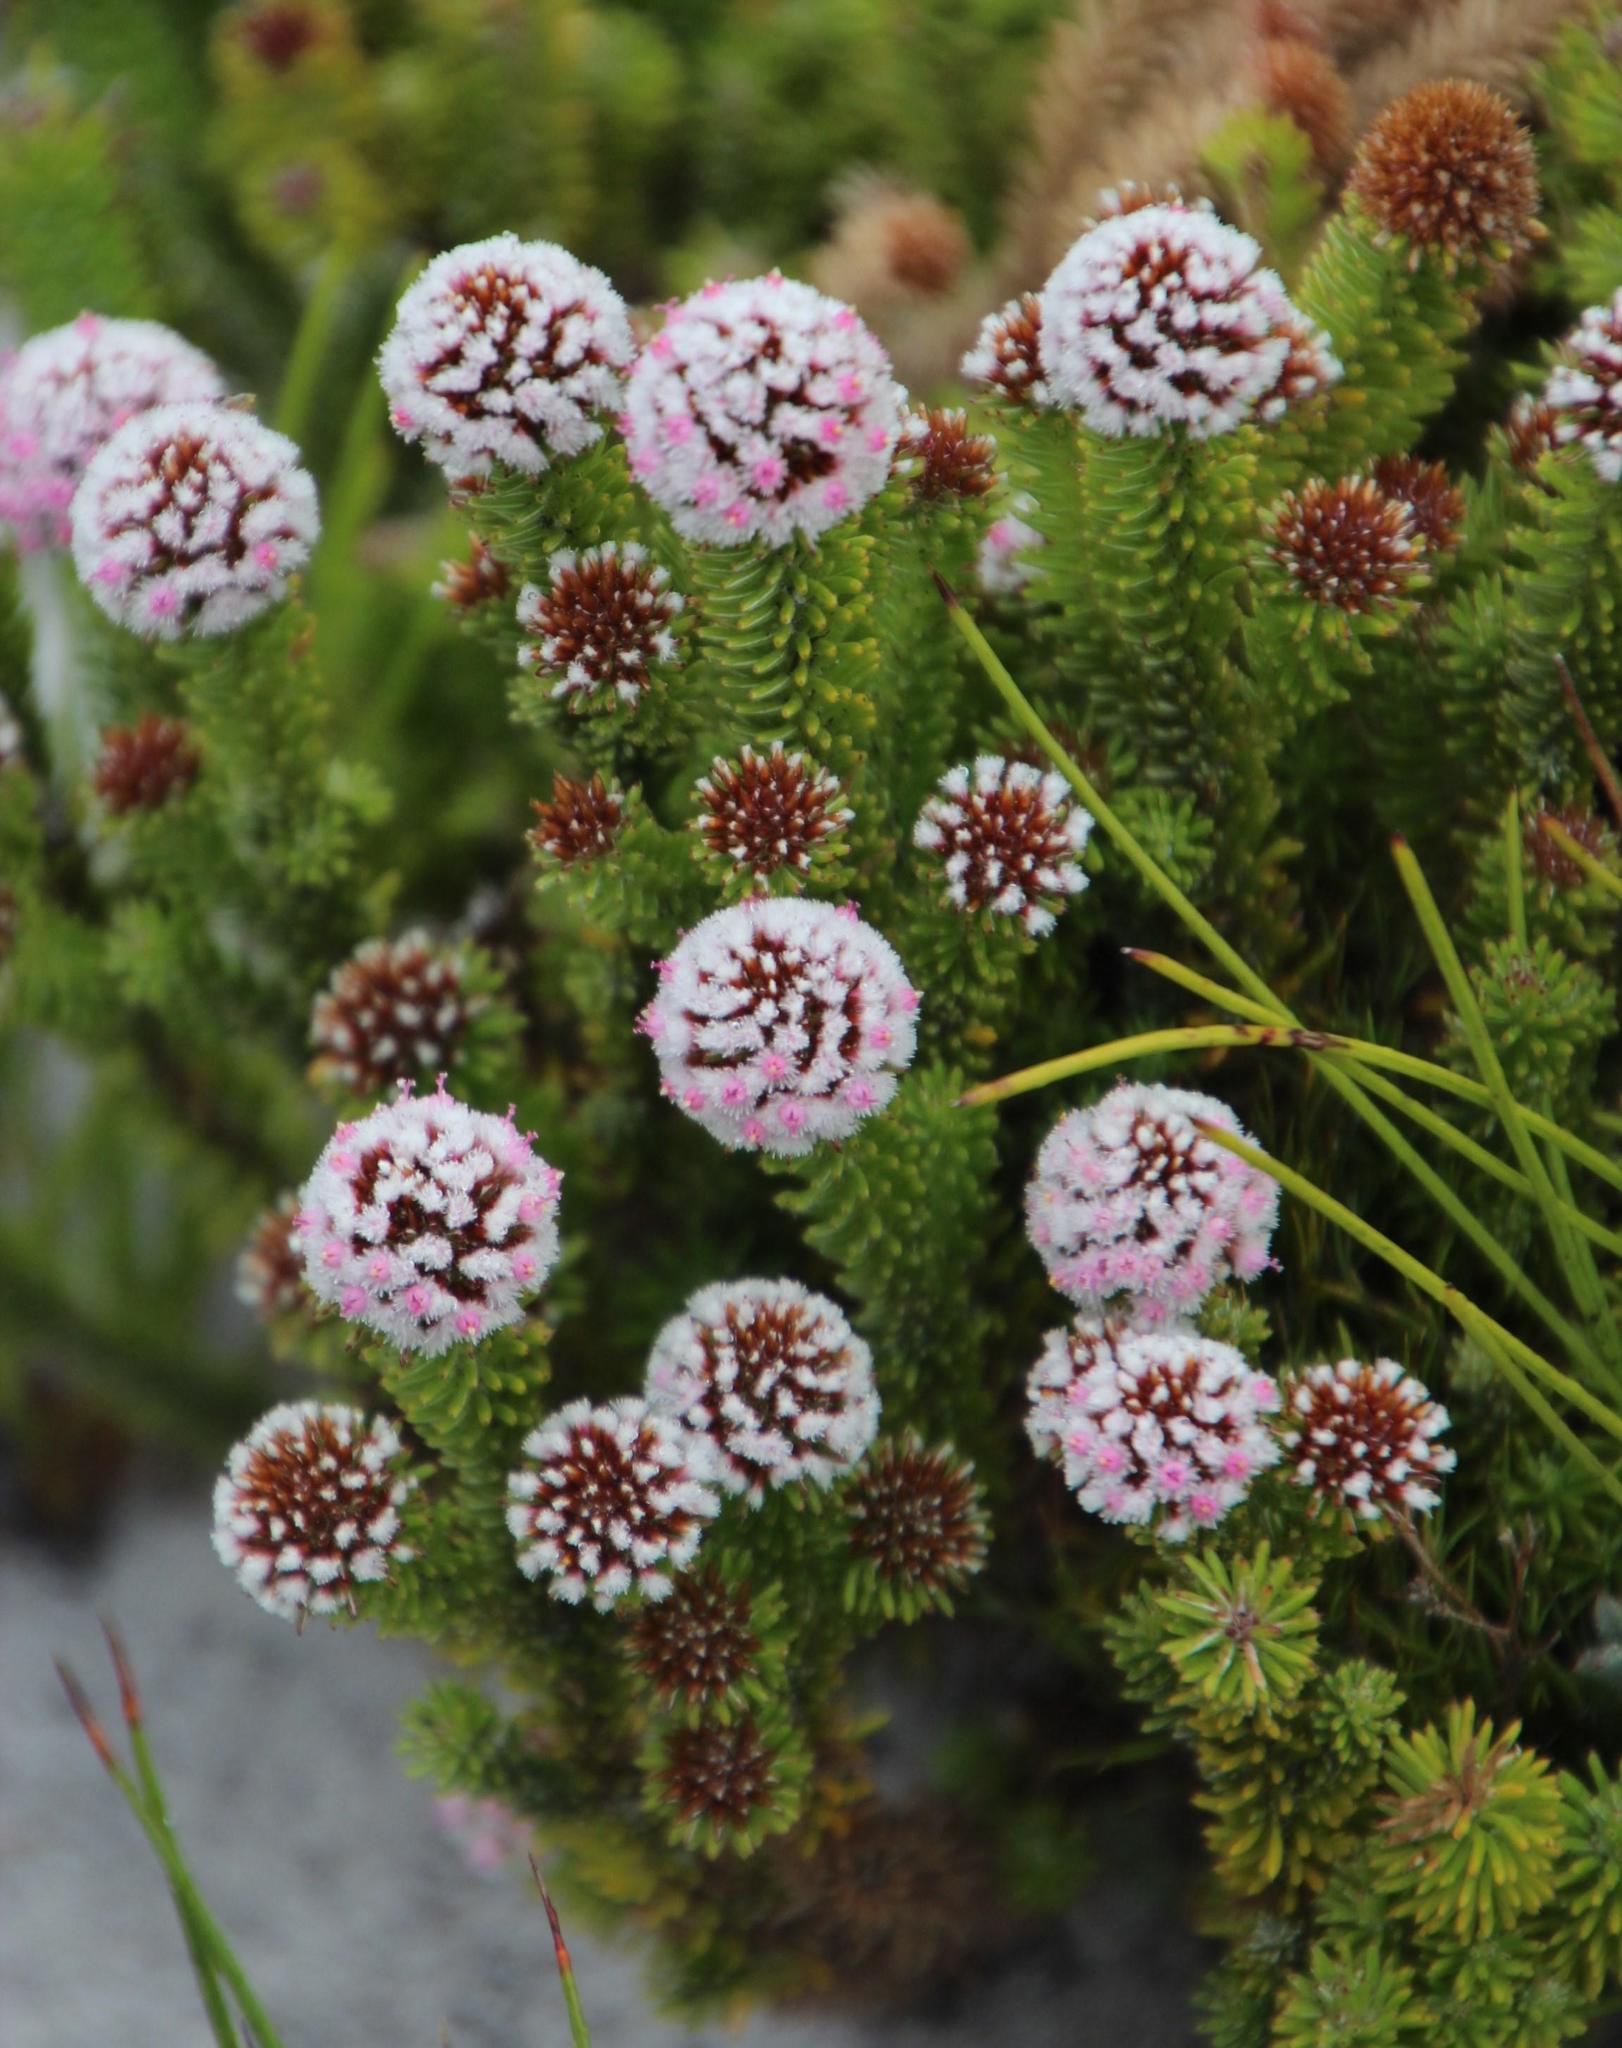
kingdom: Plantae
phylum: Tracheophyta
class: Magnoliopsida
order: Asterales
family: Asteraceae
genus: Stoebe
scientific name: Stoebe rosea
